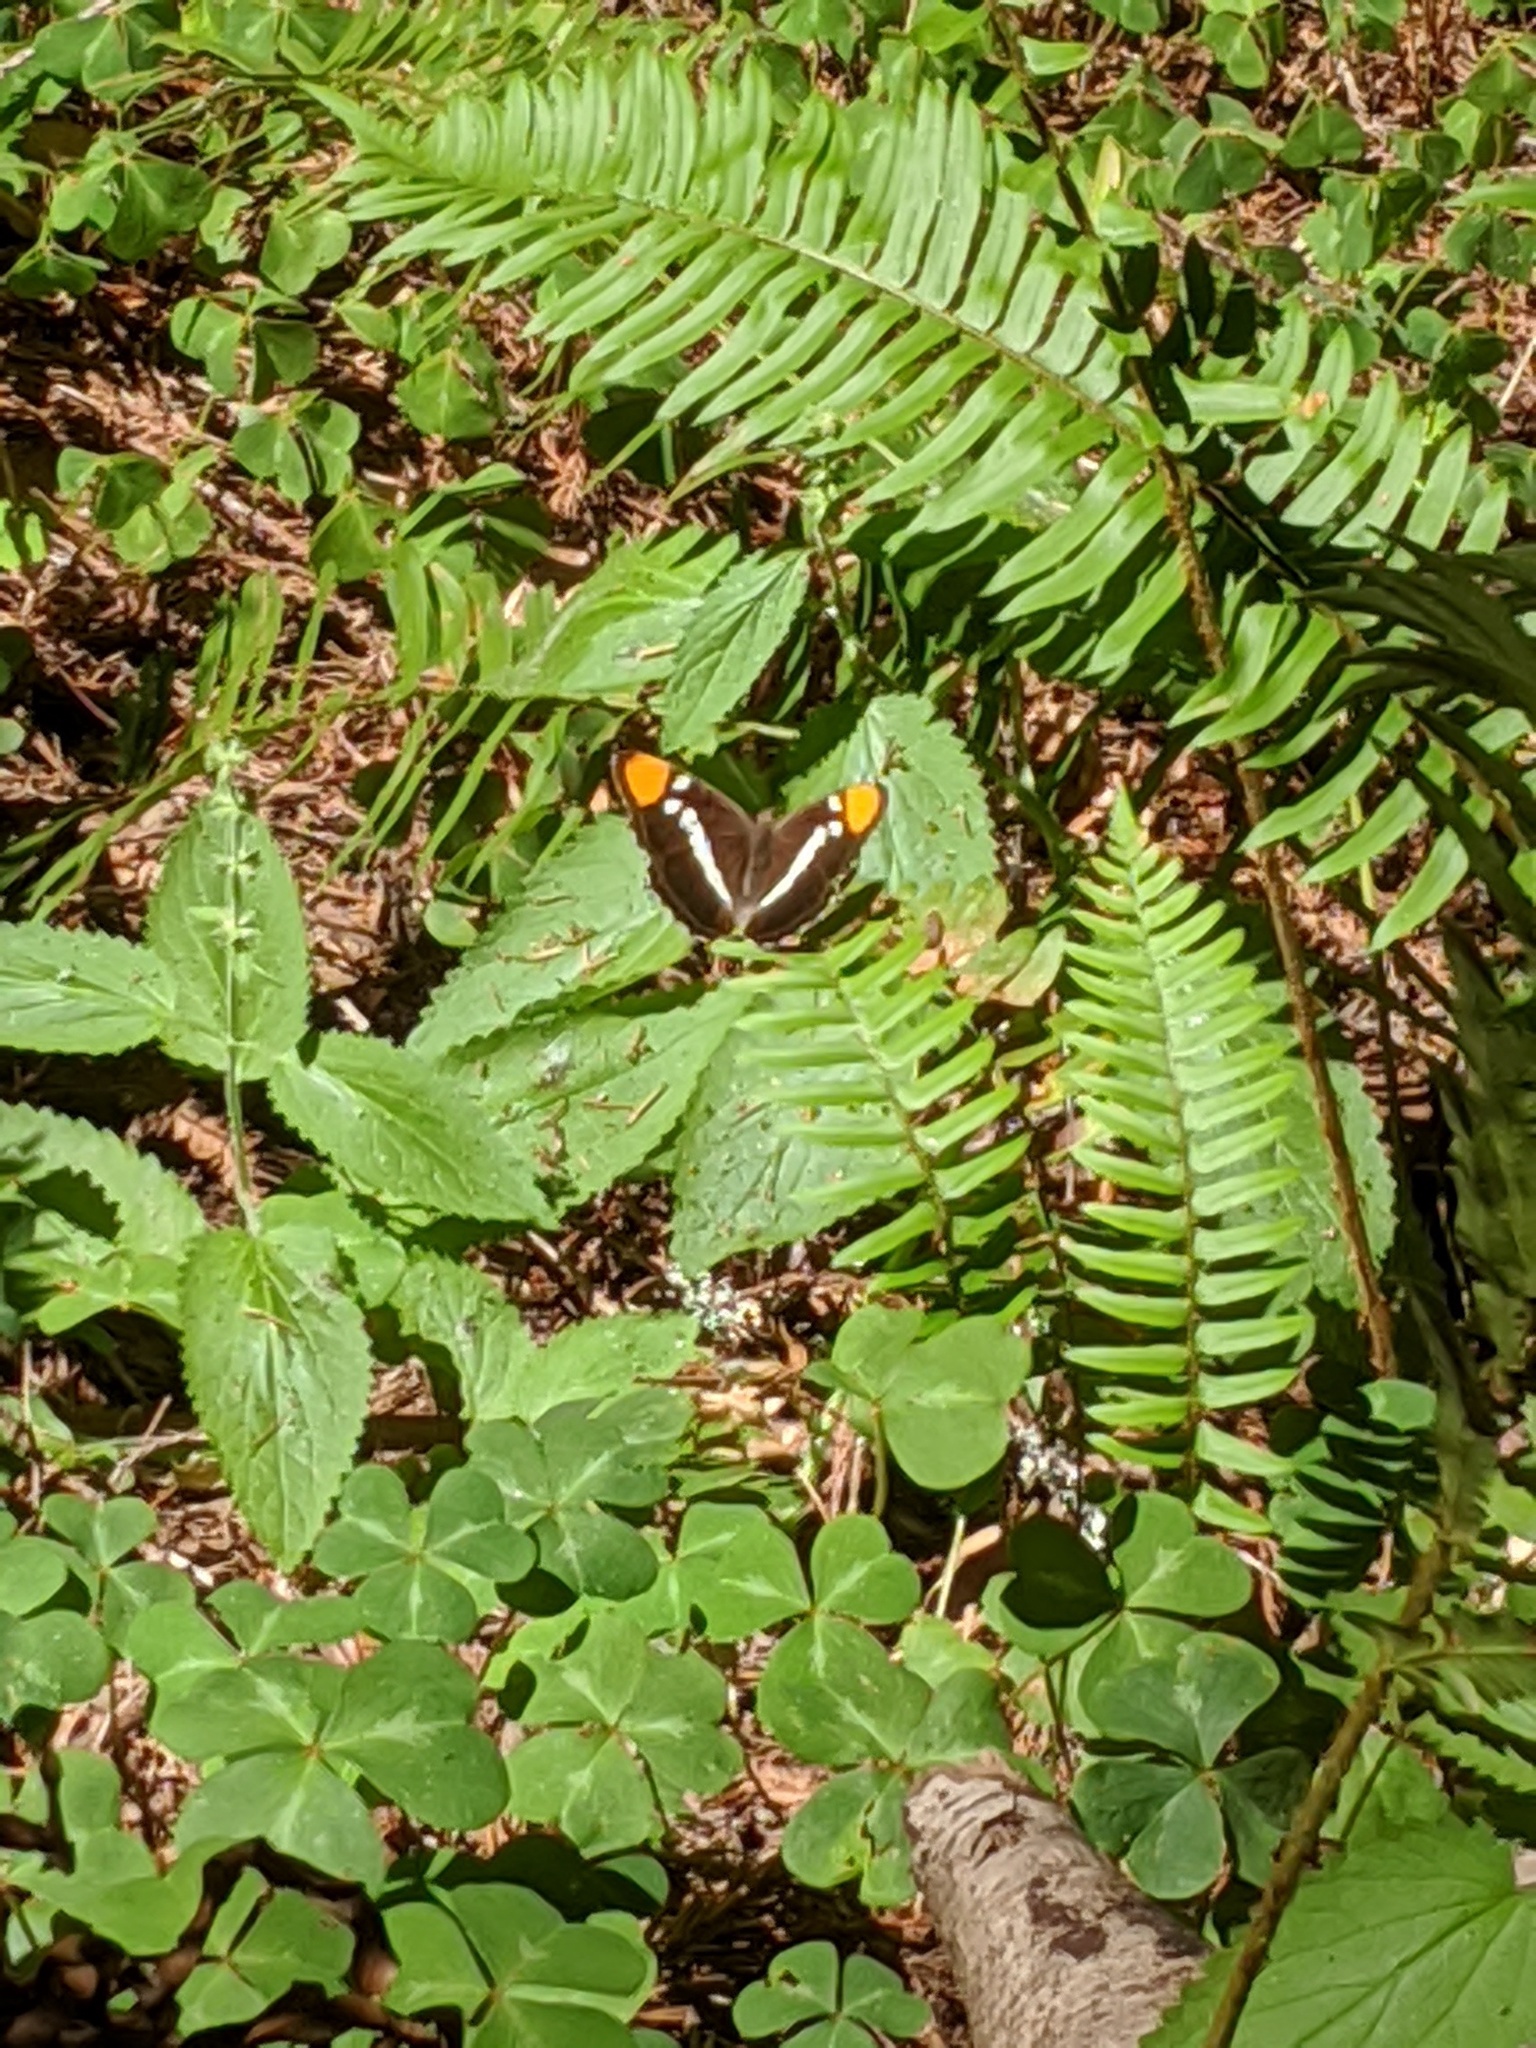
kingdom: Animalia
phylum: Arthropoda
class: Insecta
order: Lepidoptera
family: Nymphalidae
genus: Limenitis
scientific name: Limenitis bredowii
